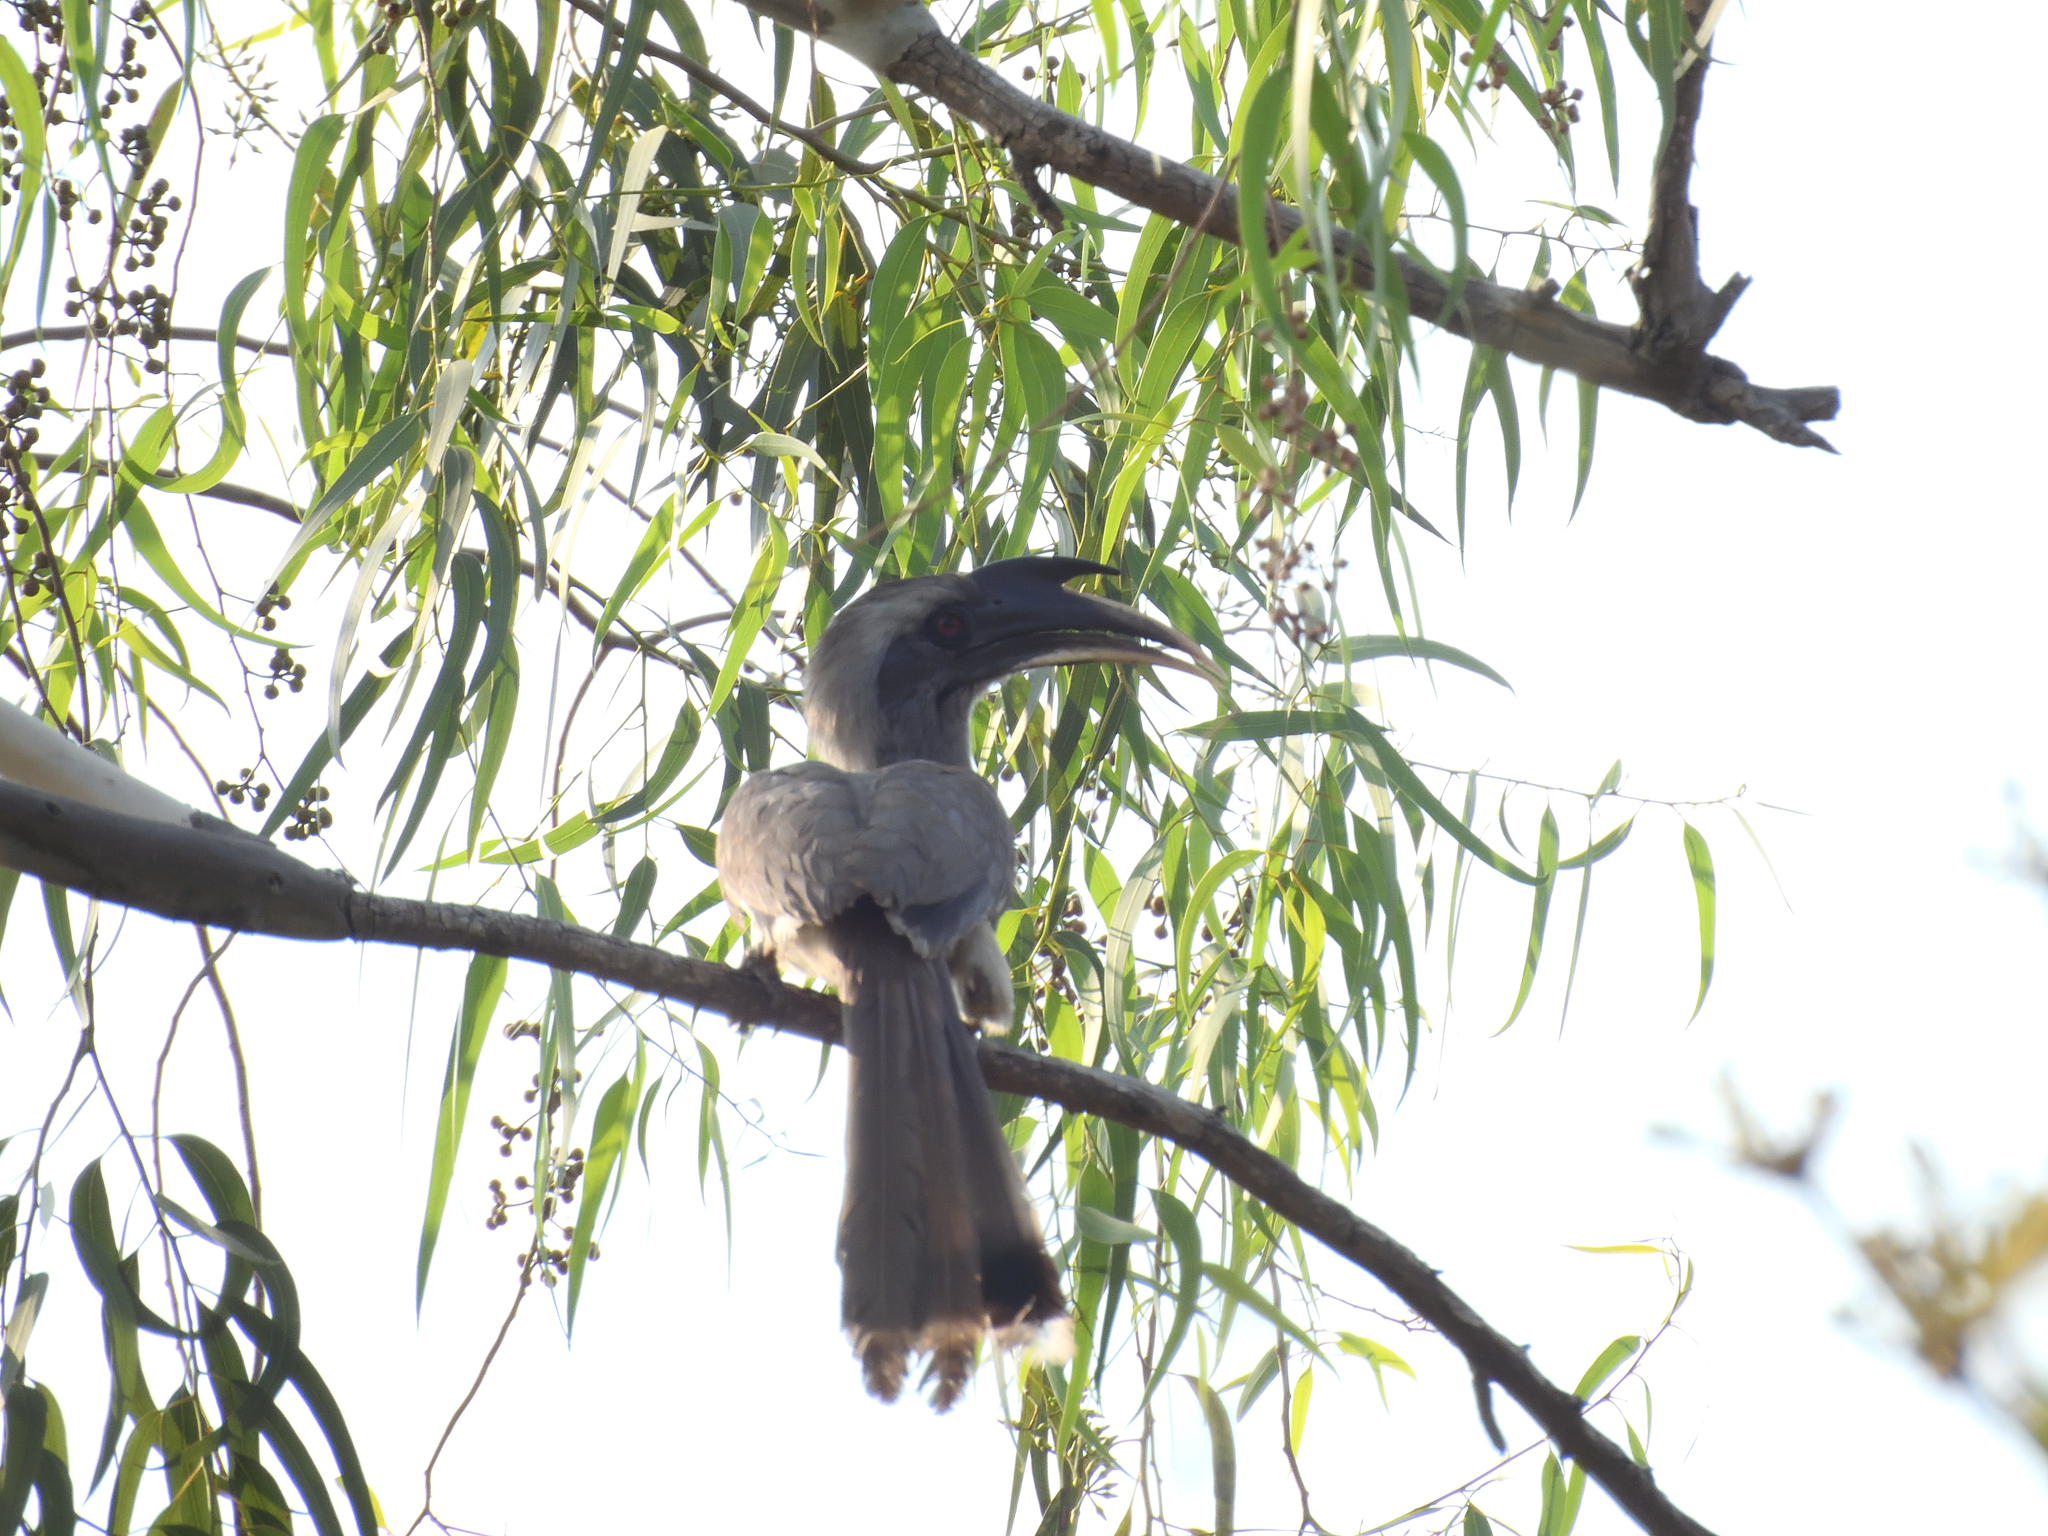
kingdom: Animalia
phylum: Chordata
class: Aves
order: Bucerotiformes
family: Bucerotidae
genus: Ocyceros
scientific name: Ocyceros birostris
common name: Indian grey hornbill
